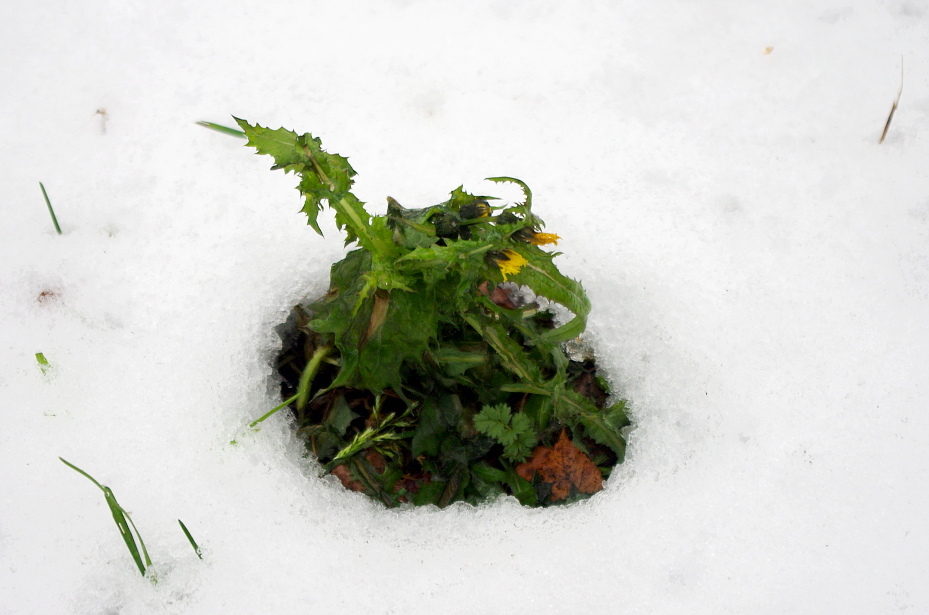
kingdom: Plantae
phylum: Tracheophyta
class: Magnoliopsida
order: Asterales
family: Asteraceae
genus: Sonchus
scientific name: Sonchus oleraceus
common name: Common sowthistle
